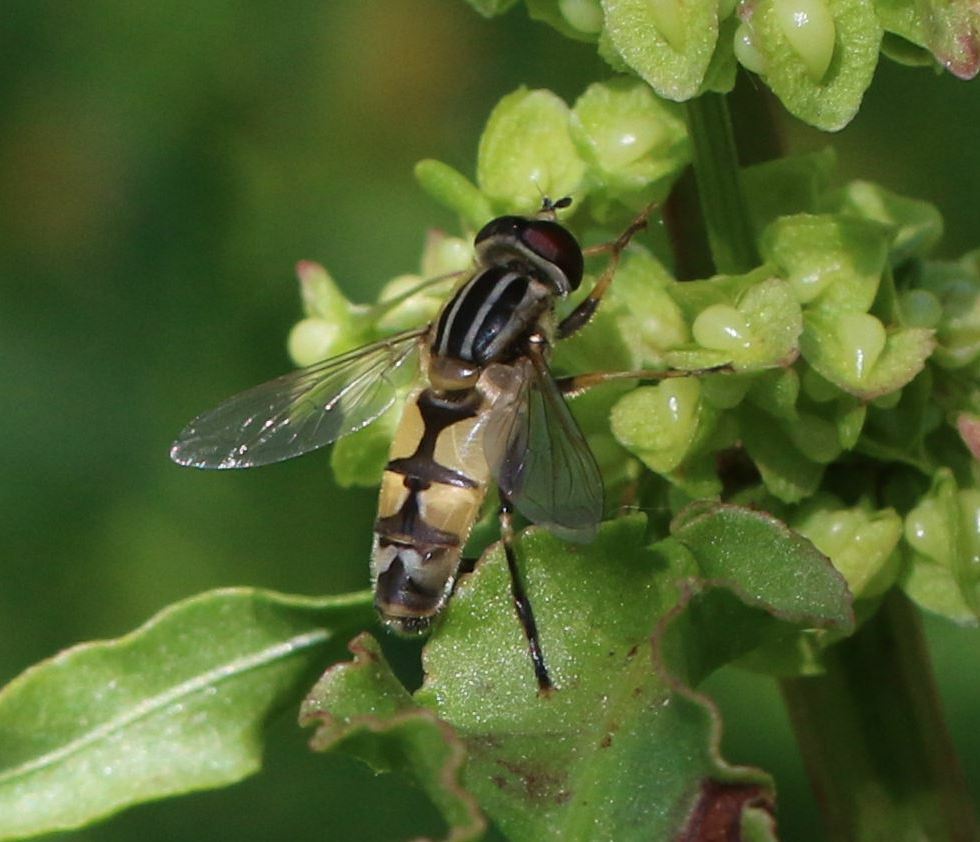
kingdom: Animalia
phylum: Arthropoda
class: Insecta
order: Diptera
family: Syrphidae
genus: Helophilus
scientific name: Helophilus trivittatus
